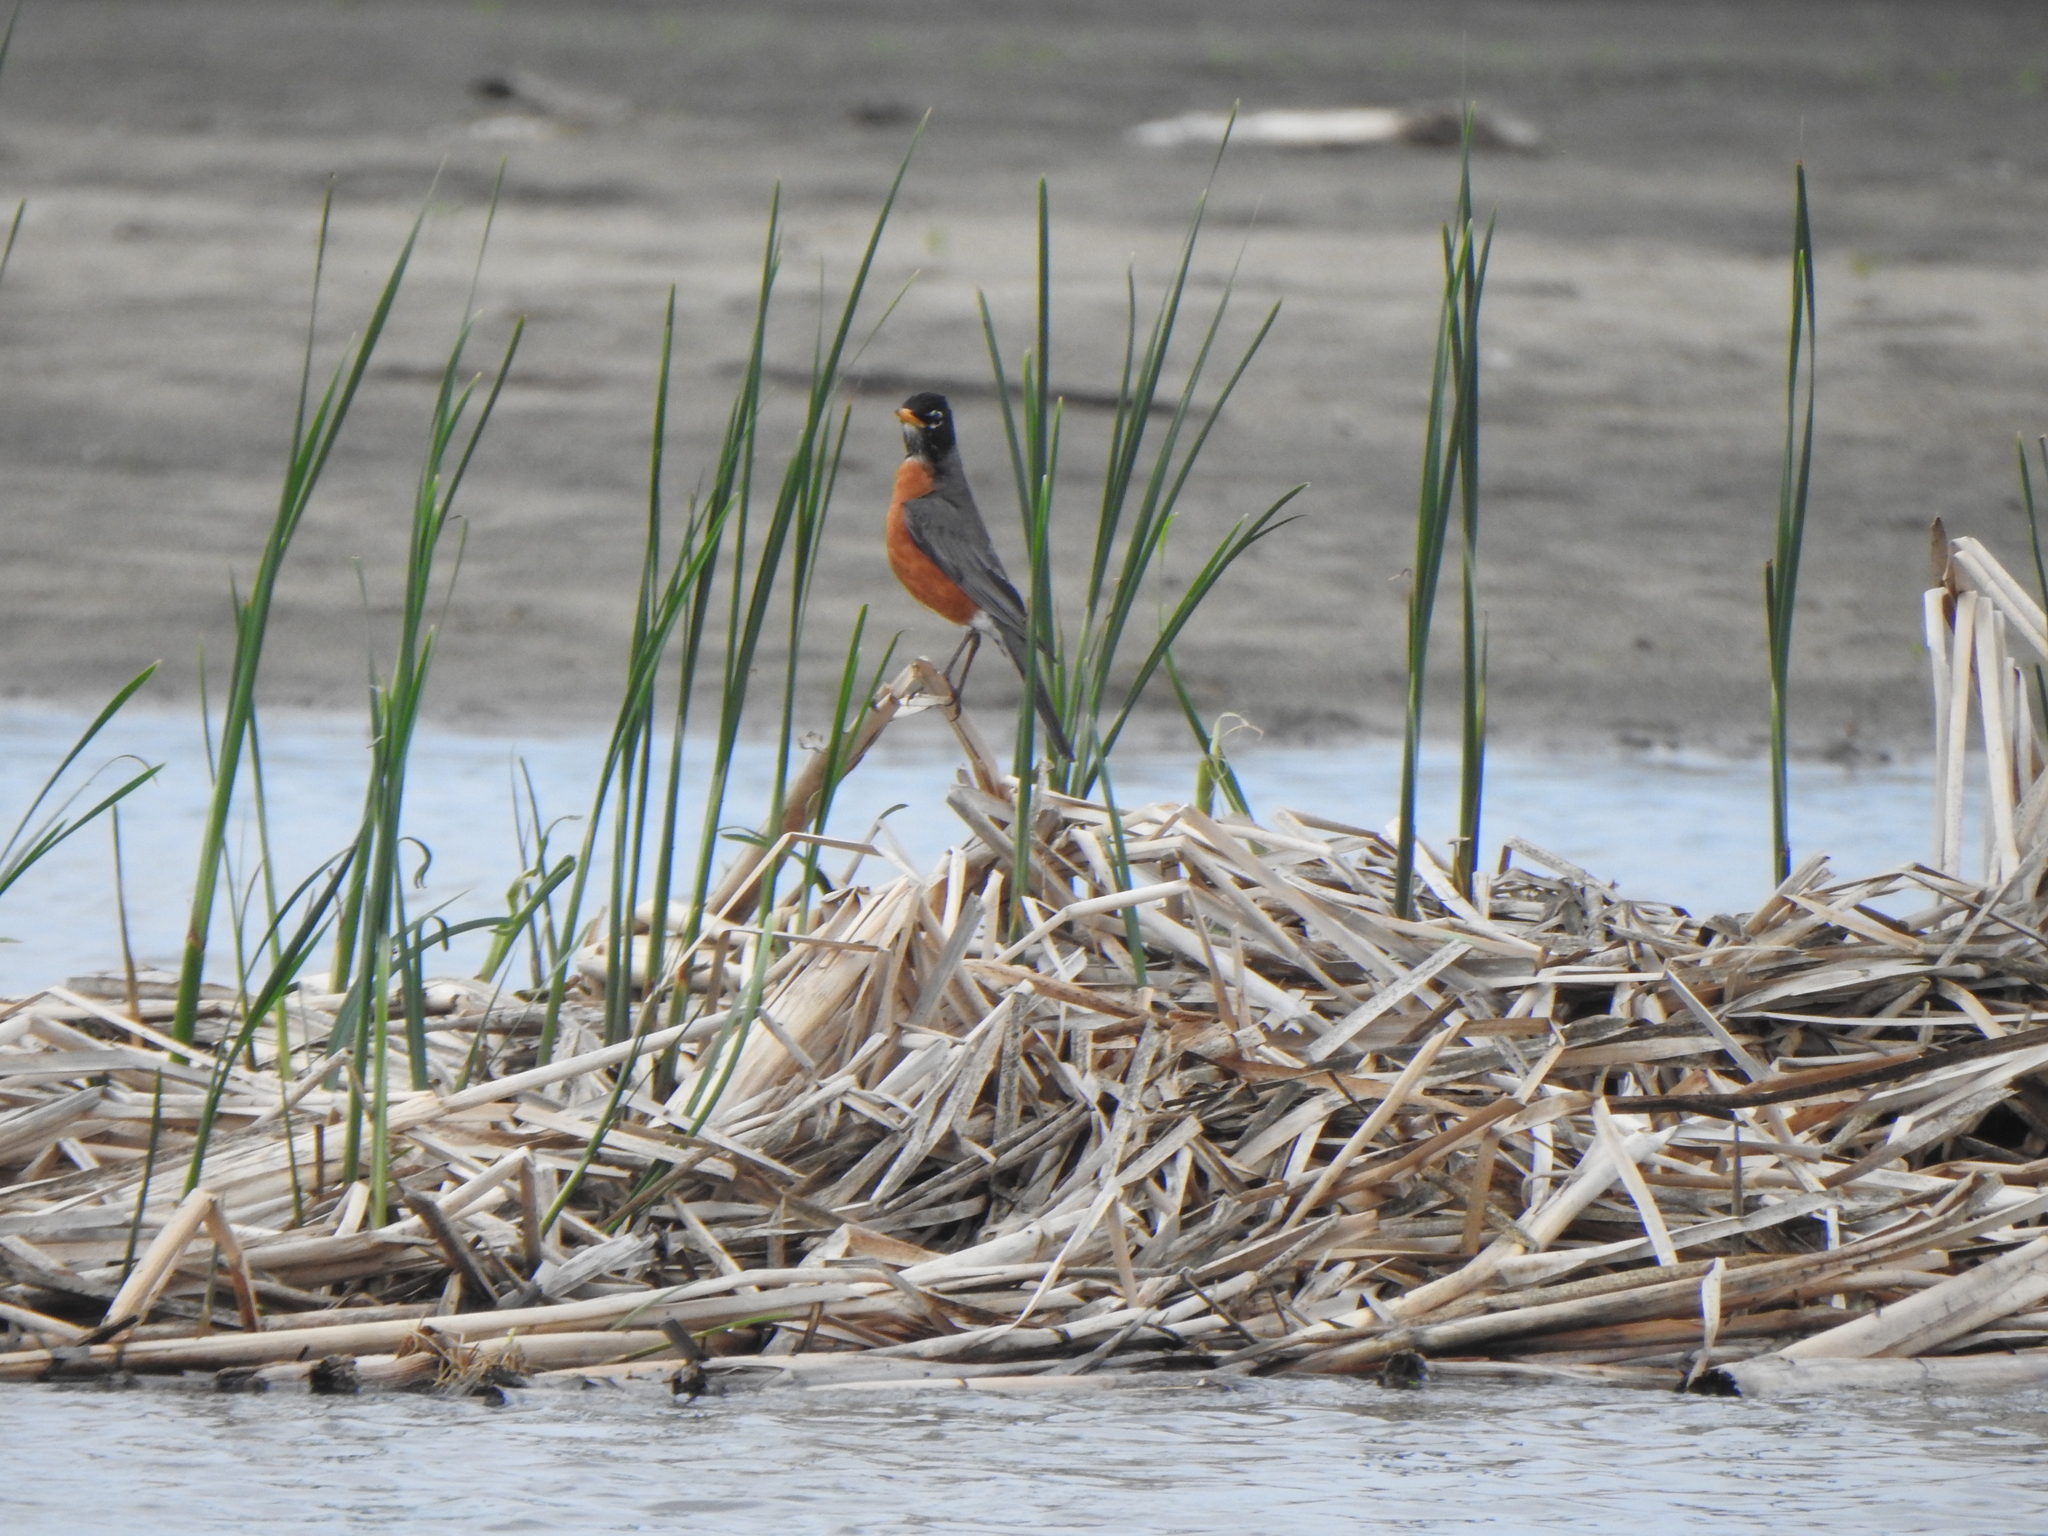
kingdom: Animalia
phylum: Chordata
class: Aves
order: Passeriformes
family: Turdidae
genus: Turdus
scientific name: Turdus migratorius
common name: American robin
